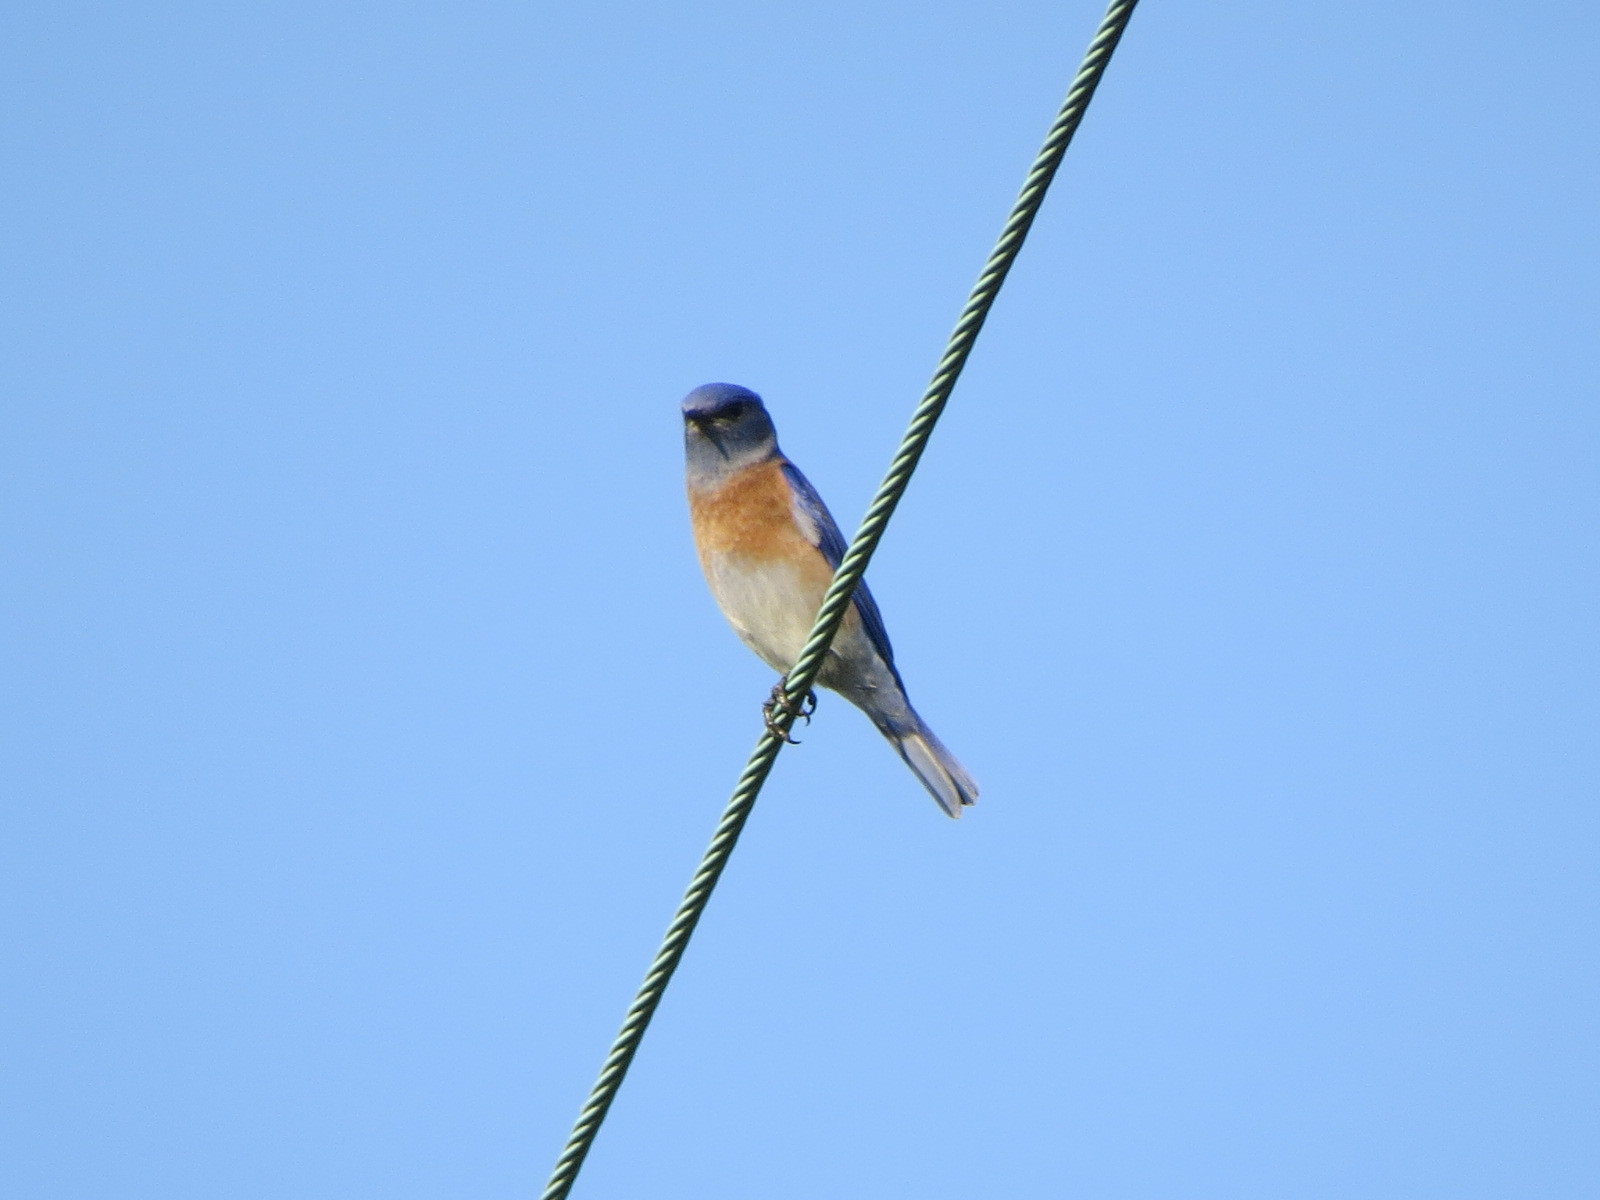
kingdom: Animalia
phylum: Chordata
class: Aves
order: Passeriformes
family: Turdidae
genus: Sialia
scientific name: Sialia mexicana
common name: Western bluebird
